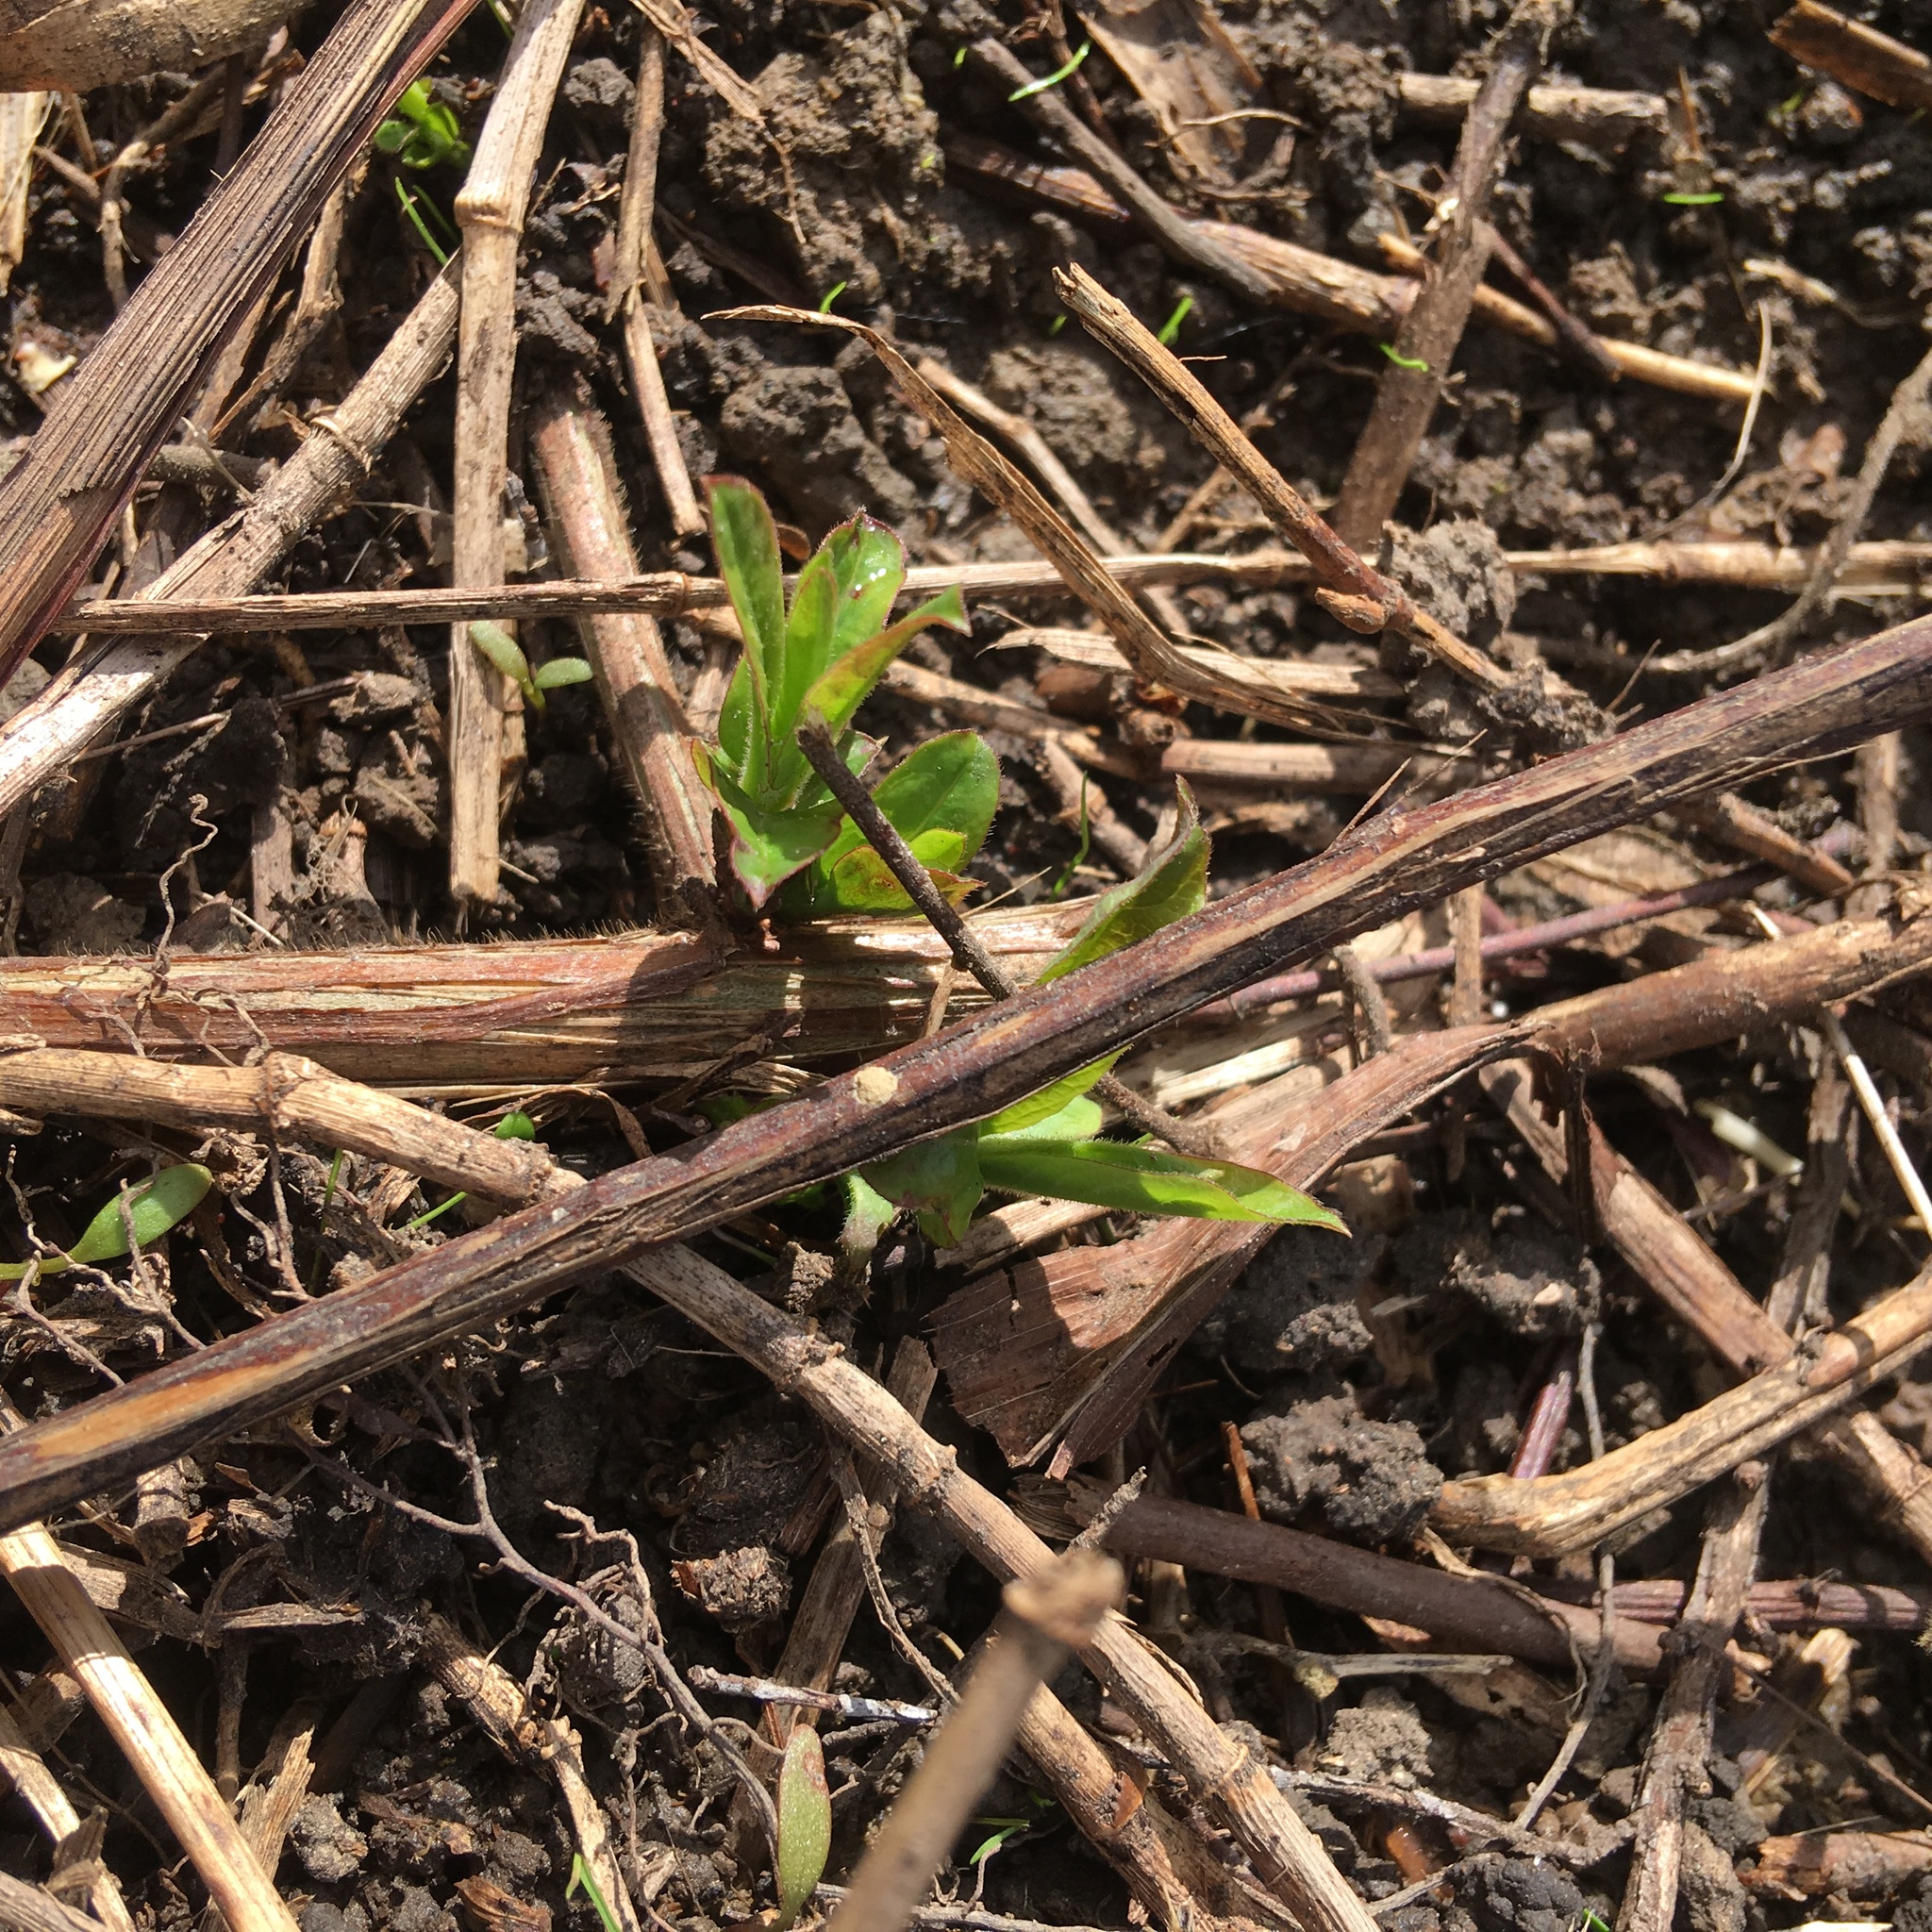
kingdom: Plantae
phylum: Tracheophyta
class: Magnoliopsida
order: Dipsacales
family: Caprifoliaceae
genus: Lonicera
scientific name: Lonicera japonica
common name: Japanese honeysuckle
